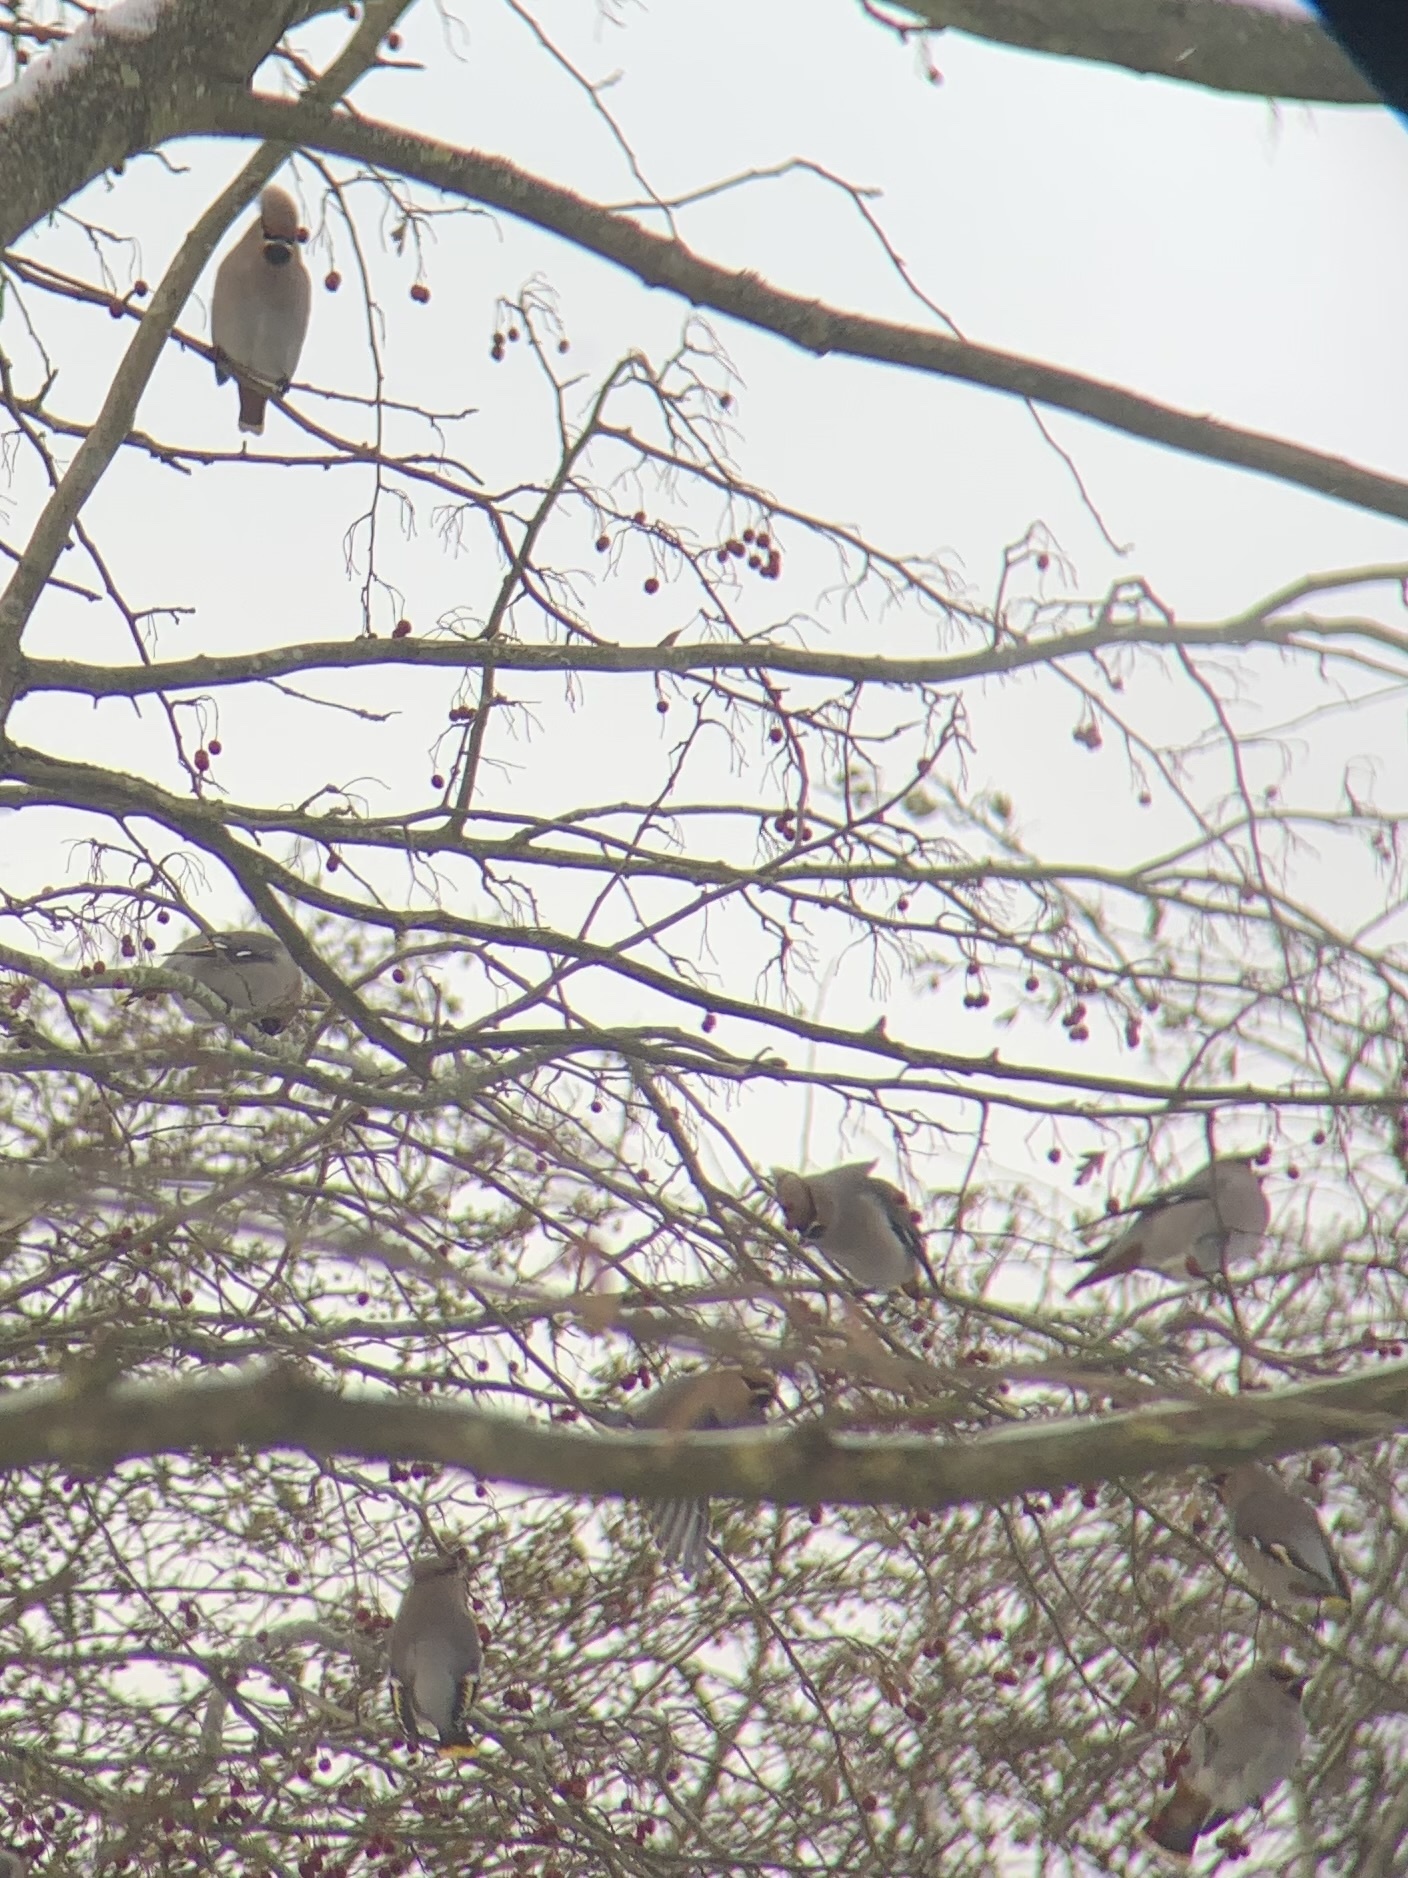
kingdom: Animalia
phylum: Chordata
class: Aves
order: Passeriformes
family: Bombycillidae
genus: Bombycilla
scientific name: Bombycilla garrulus
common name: Bohemian waxwing
